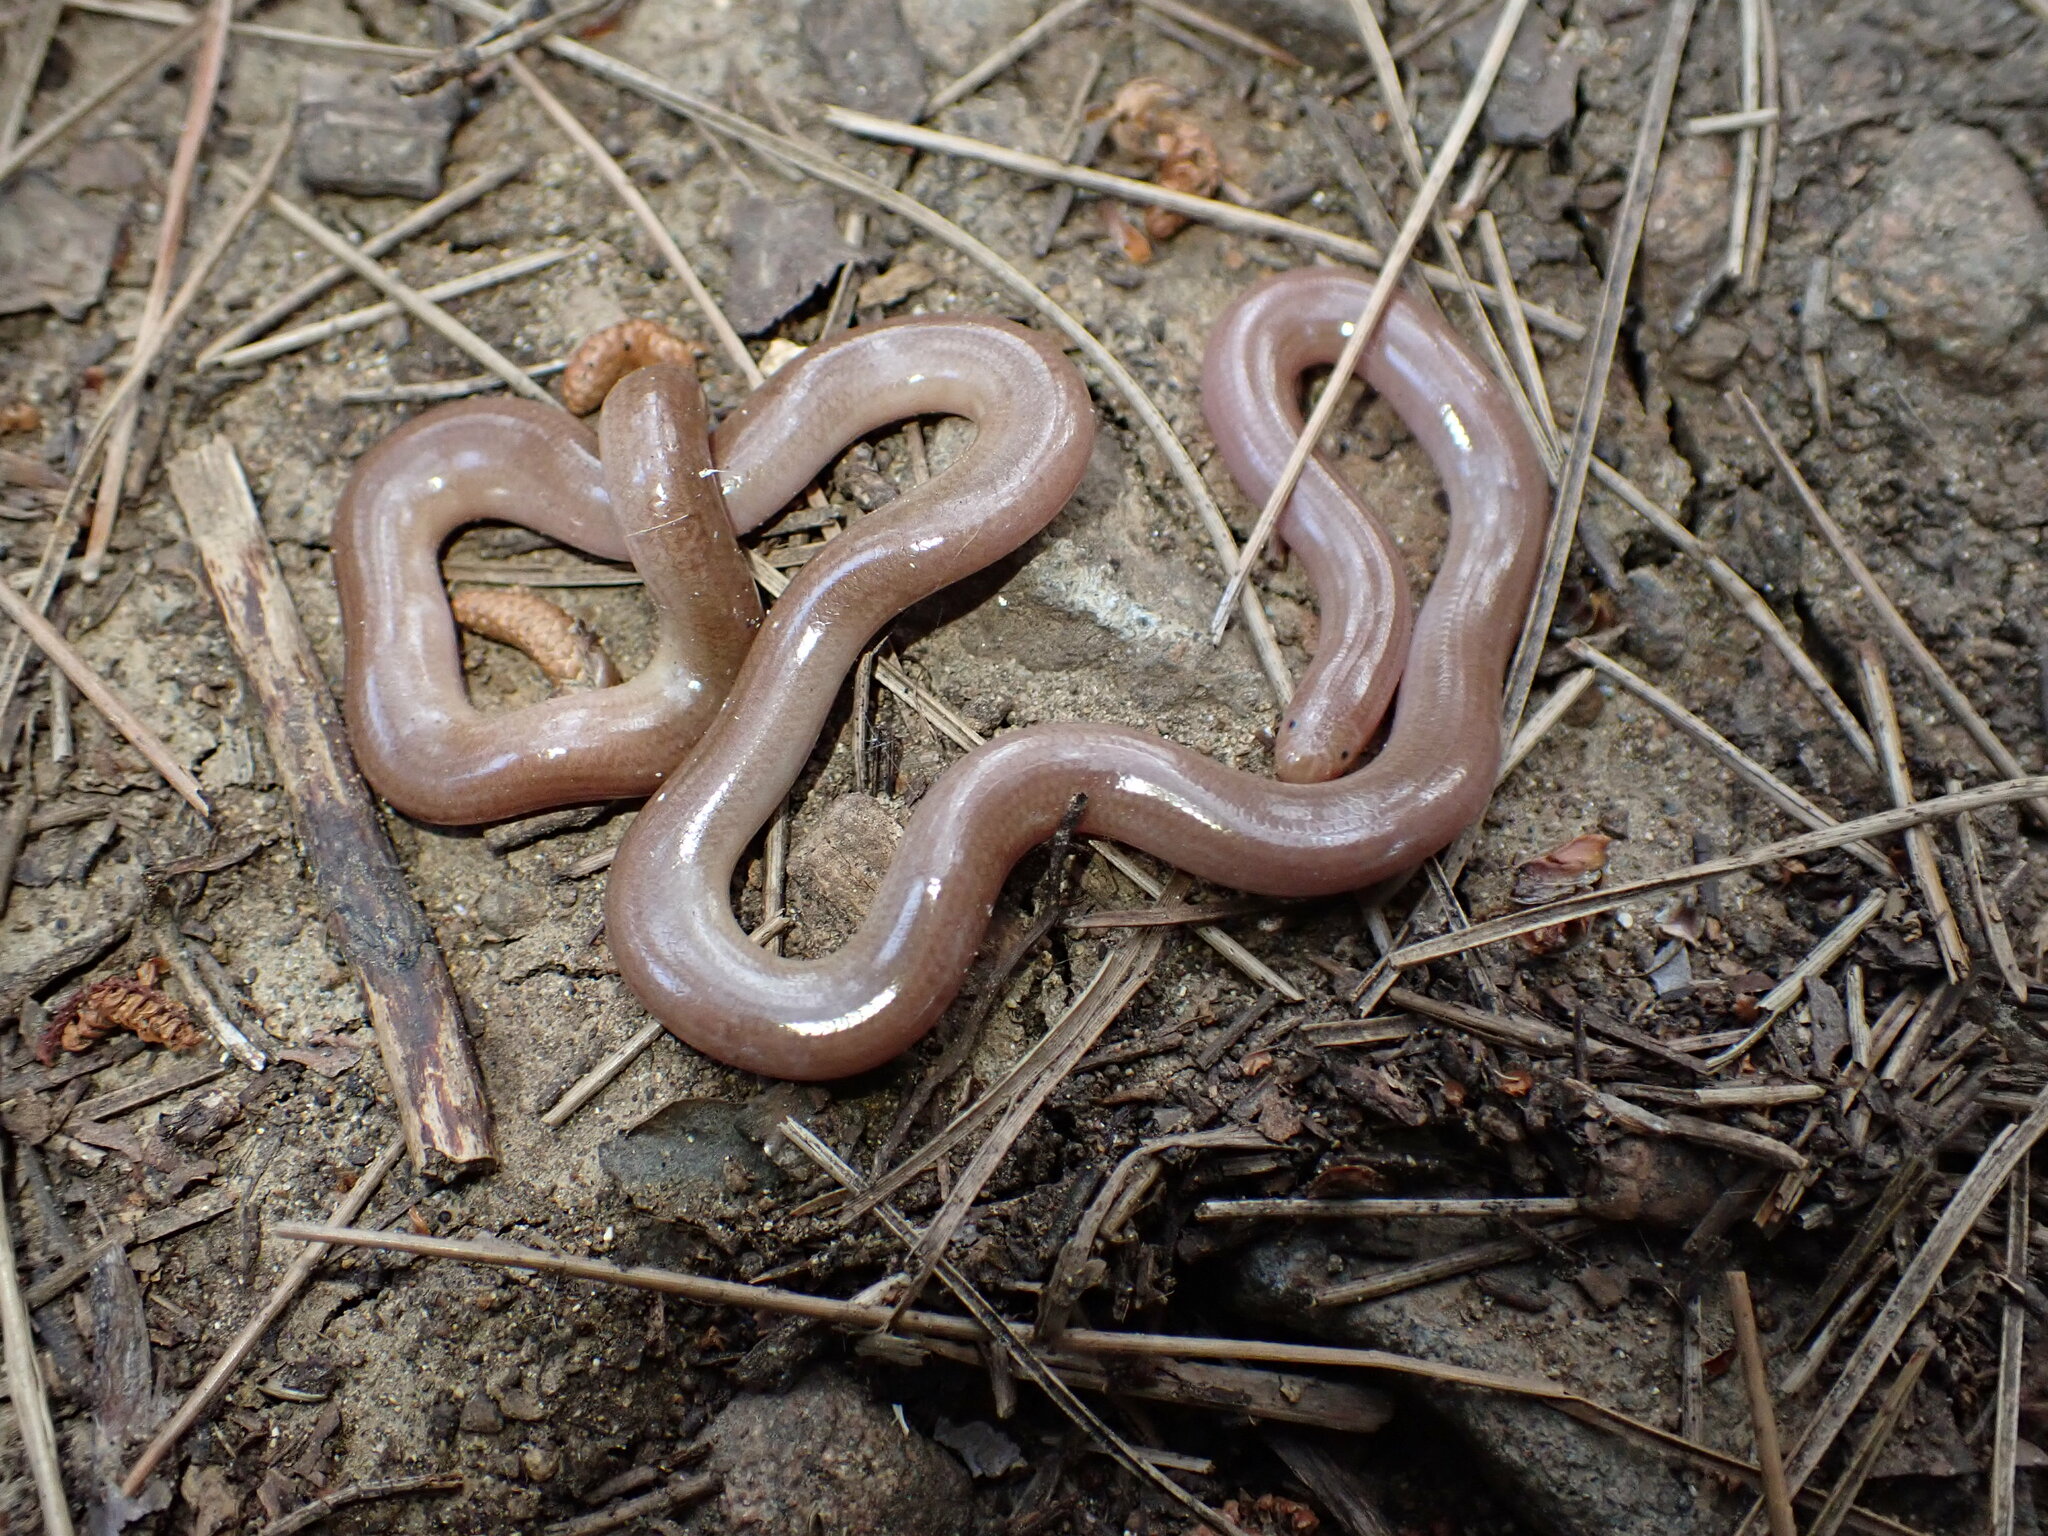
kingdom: Animalia
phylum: Chordata
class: Squamata
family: Typhlopidae
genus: Xerotyphlops
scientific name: Xerotyphlops vermicularis
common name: Eurasian blind snake
